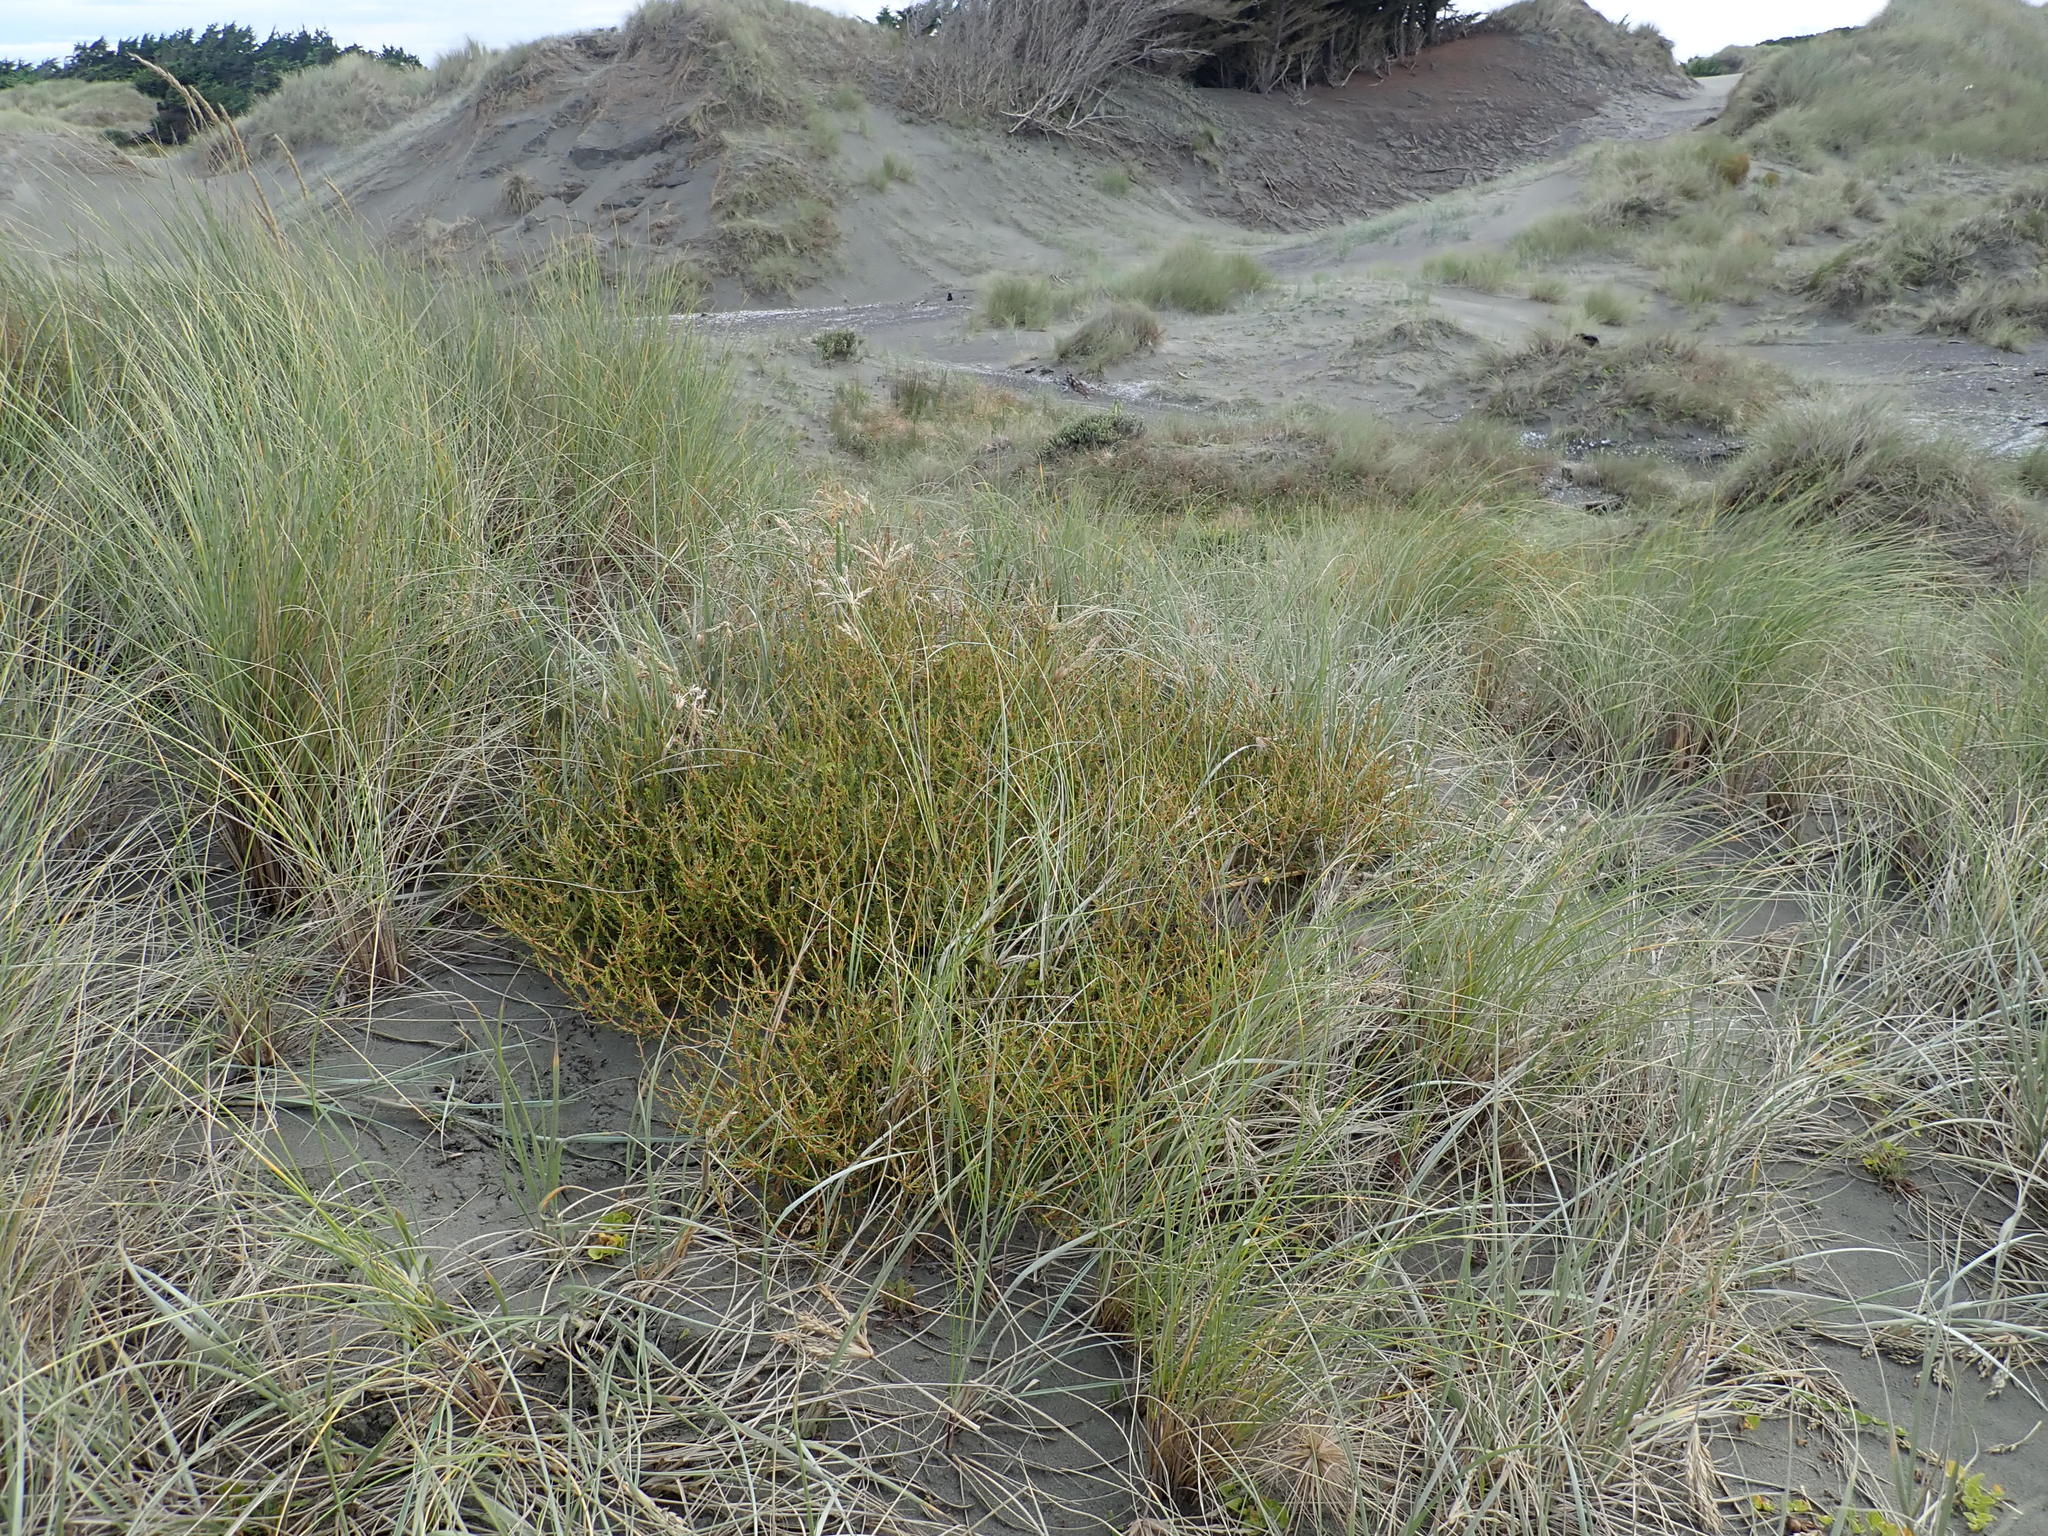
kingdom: Plantae
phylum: Tracheophyta
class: Magnoliopsida
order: Gentianales
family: Rubiaceae
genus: Coprosma
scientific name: Coprosma acerosa
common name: Sand coprosma
